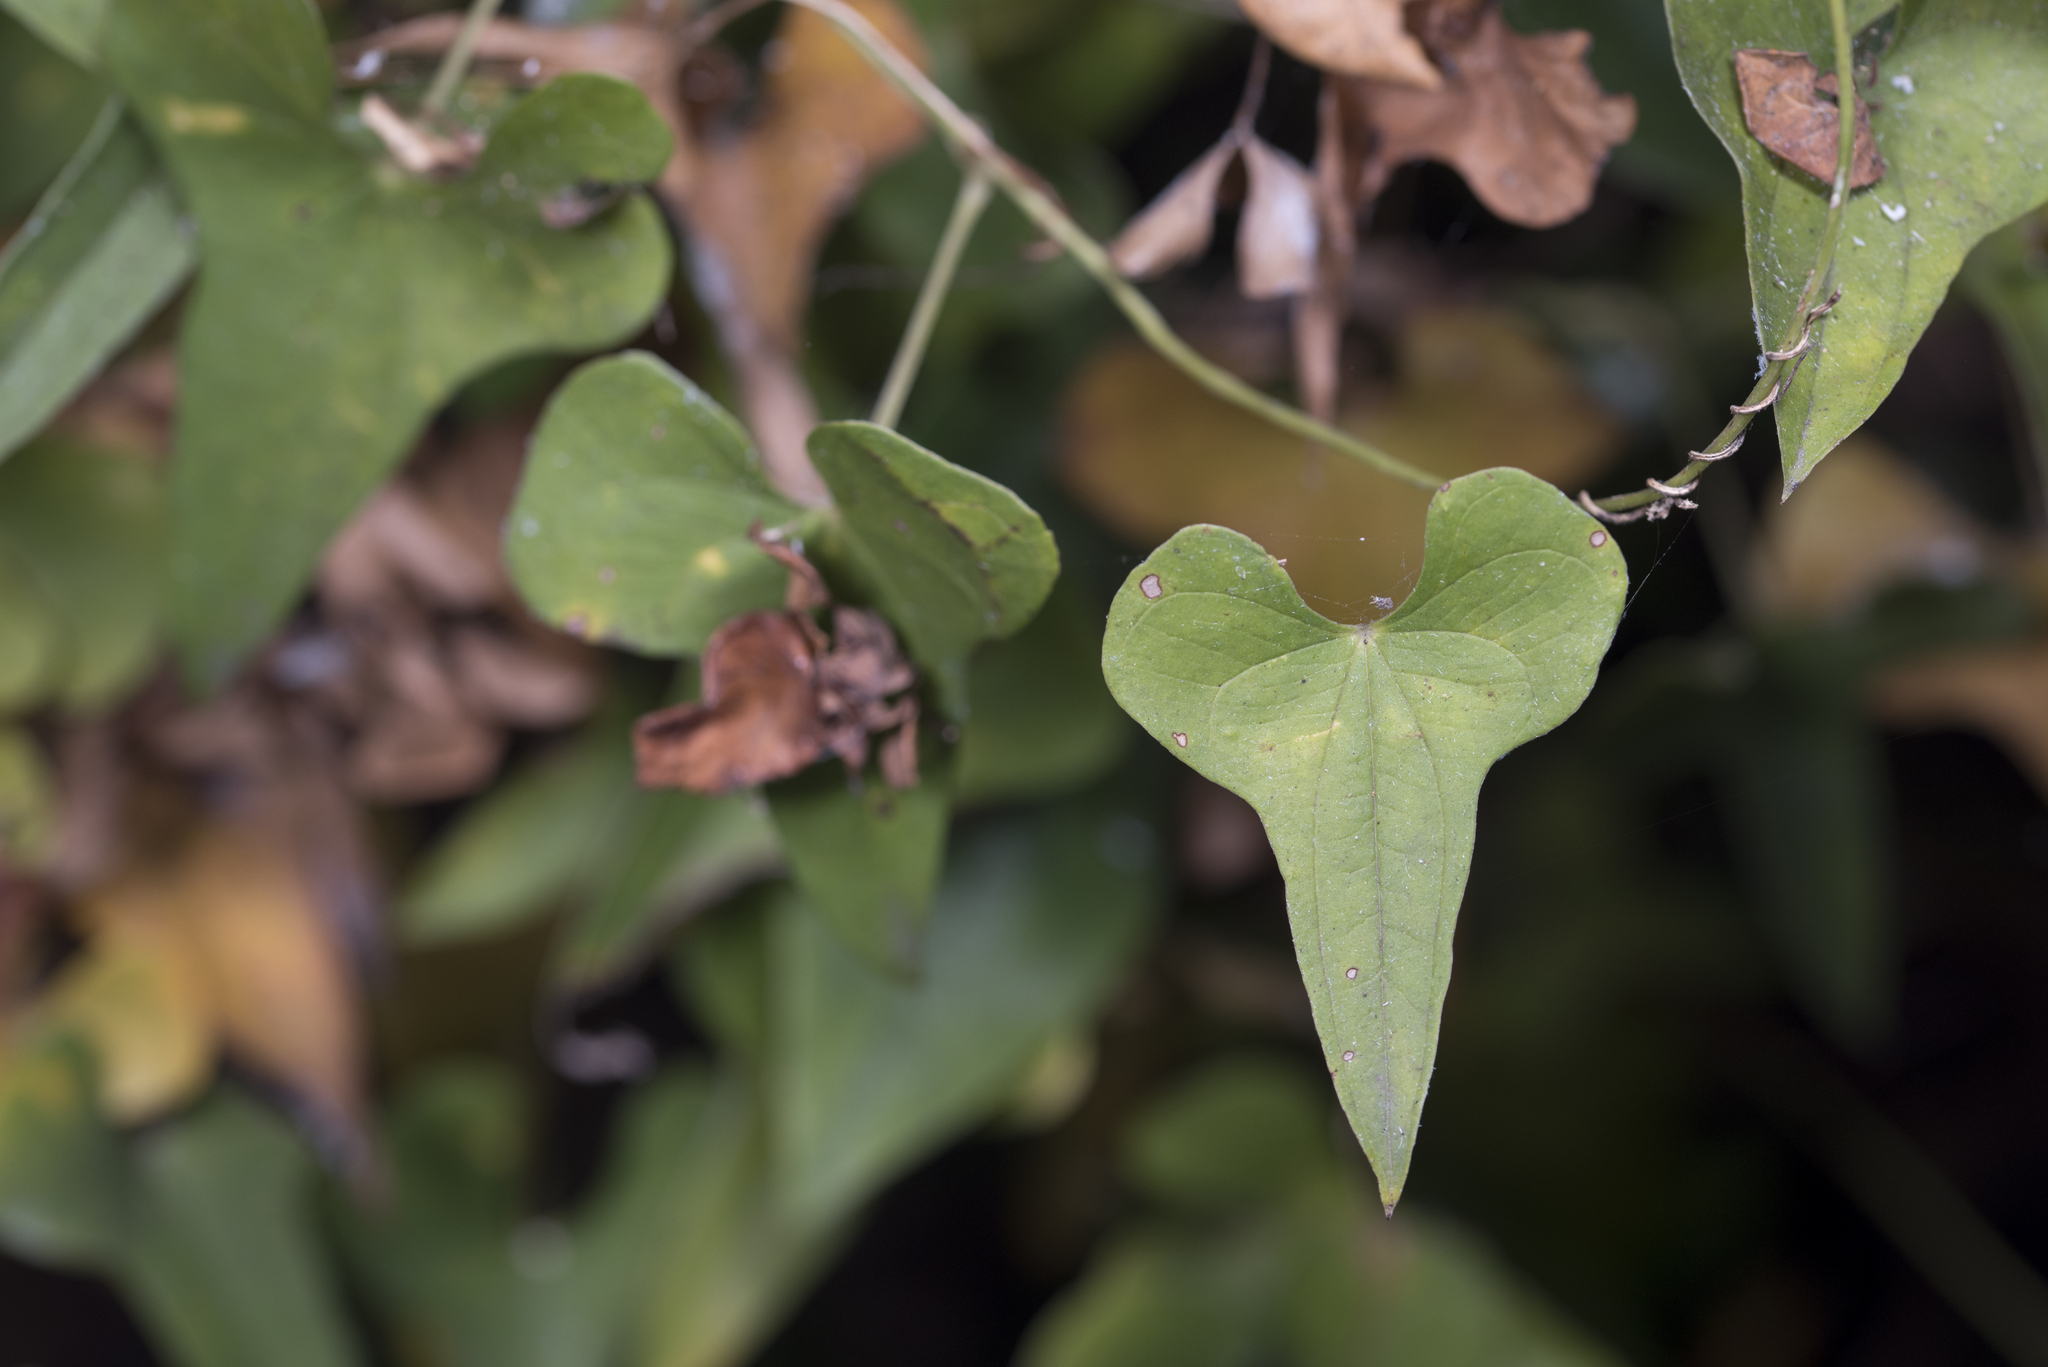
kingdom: Plantae
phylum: Tracheophyta
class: Liliopsida
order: Dioscoreales
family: Dioscoreaceae
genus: Dioscorea
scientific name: Dioscorea polystachya
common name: Chinese yam
